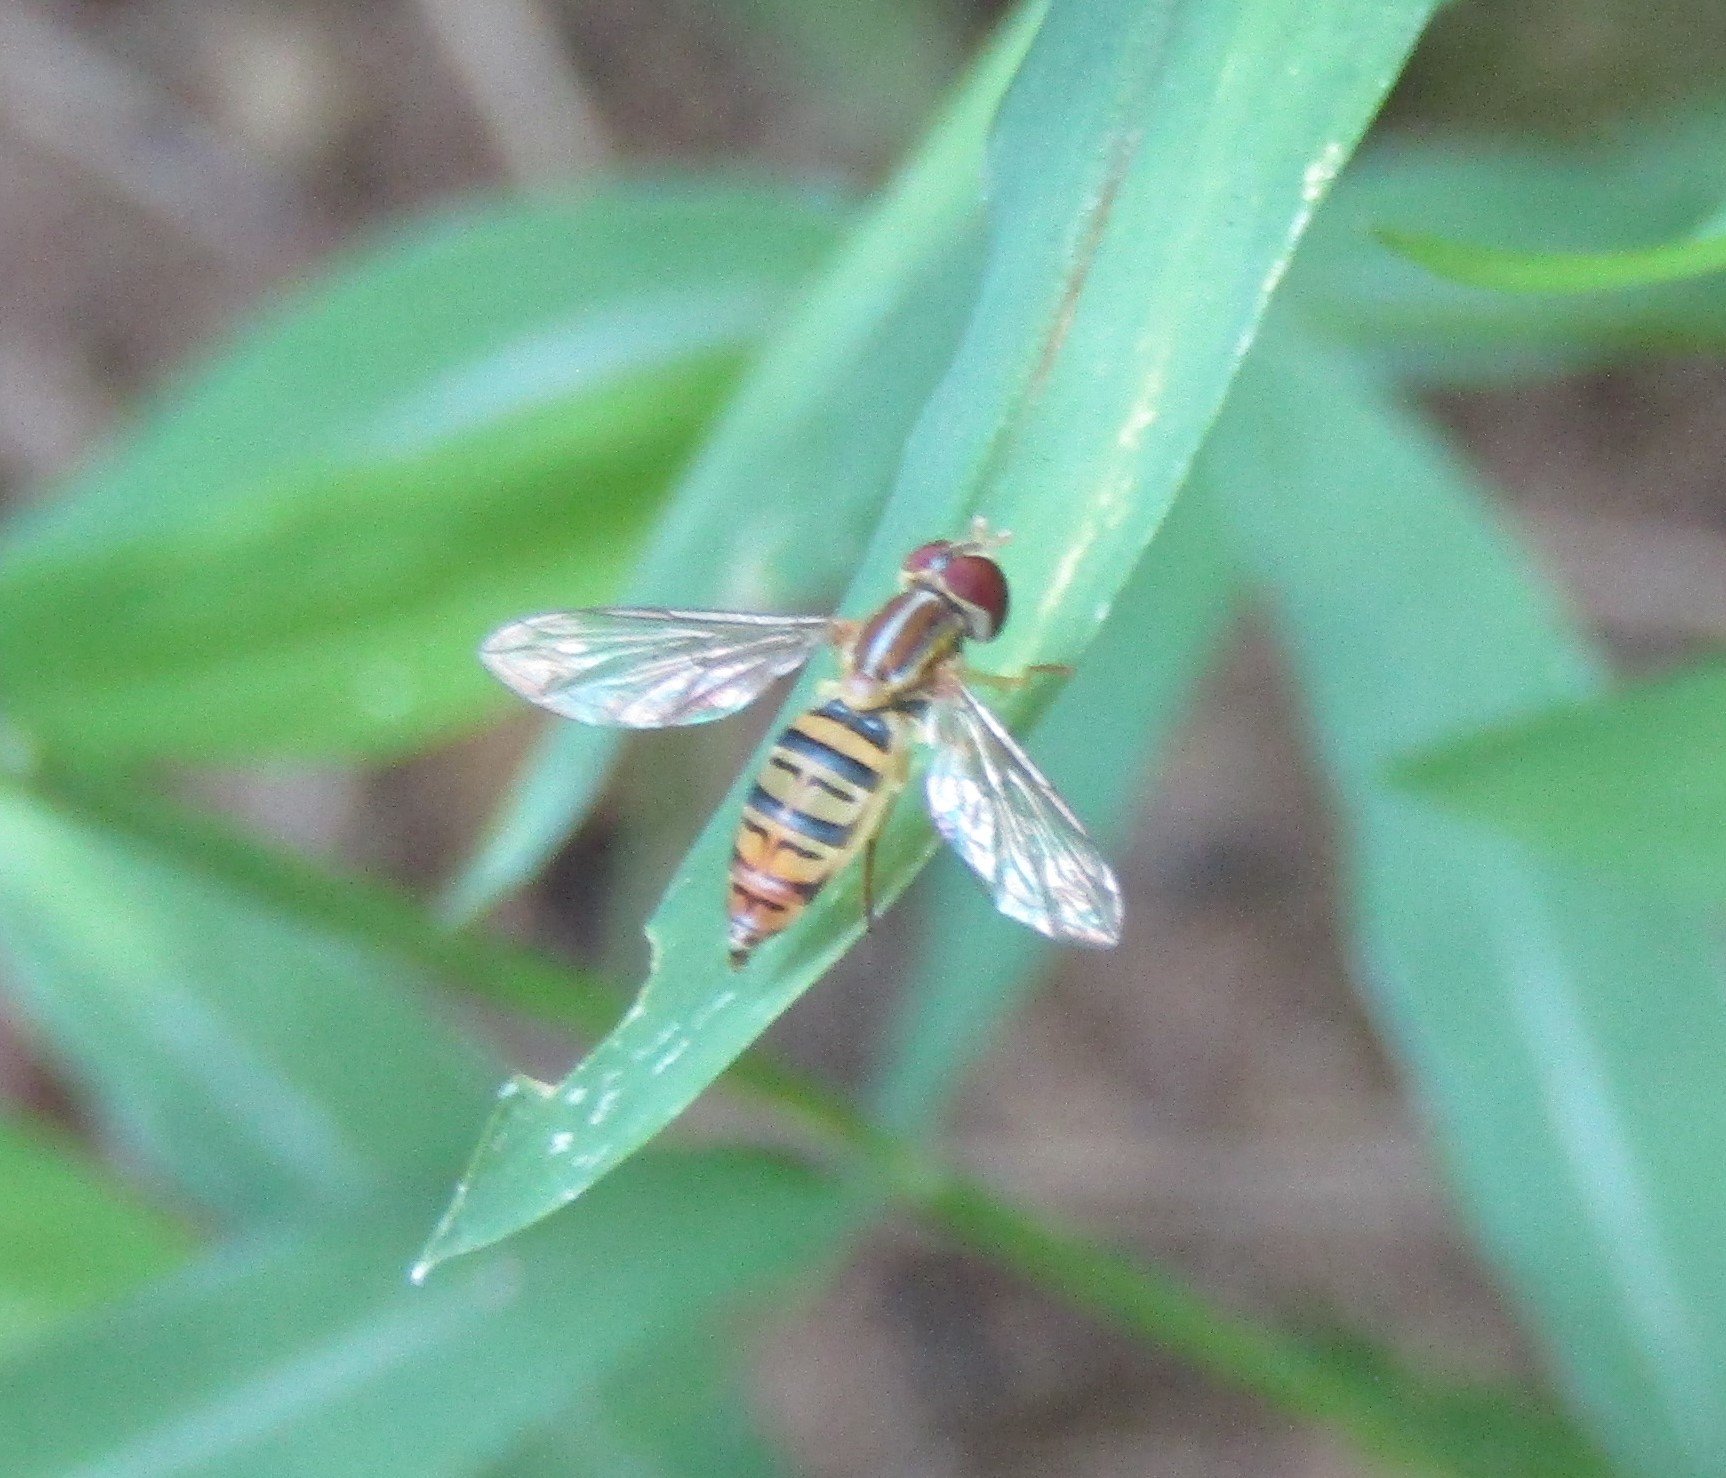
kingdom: Animalia
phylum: Arthropoda
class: Insecta
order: Diptera
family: Syrphidae
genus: Toxomerus
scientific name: Toxomerus politus
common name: Maize calligrapher
